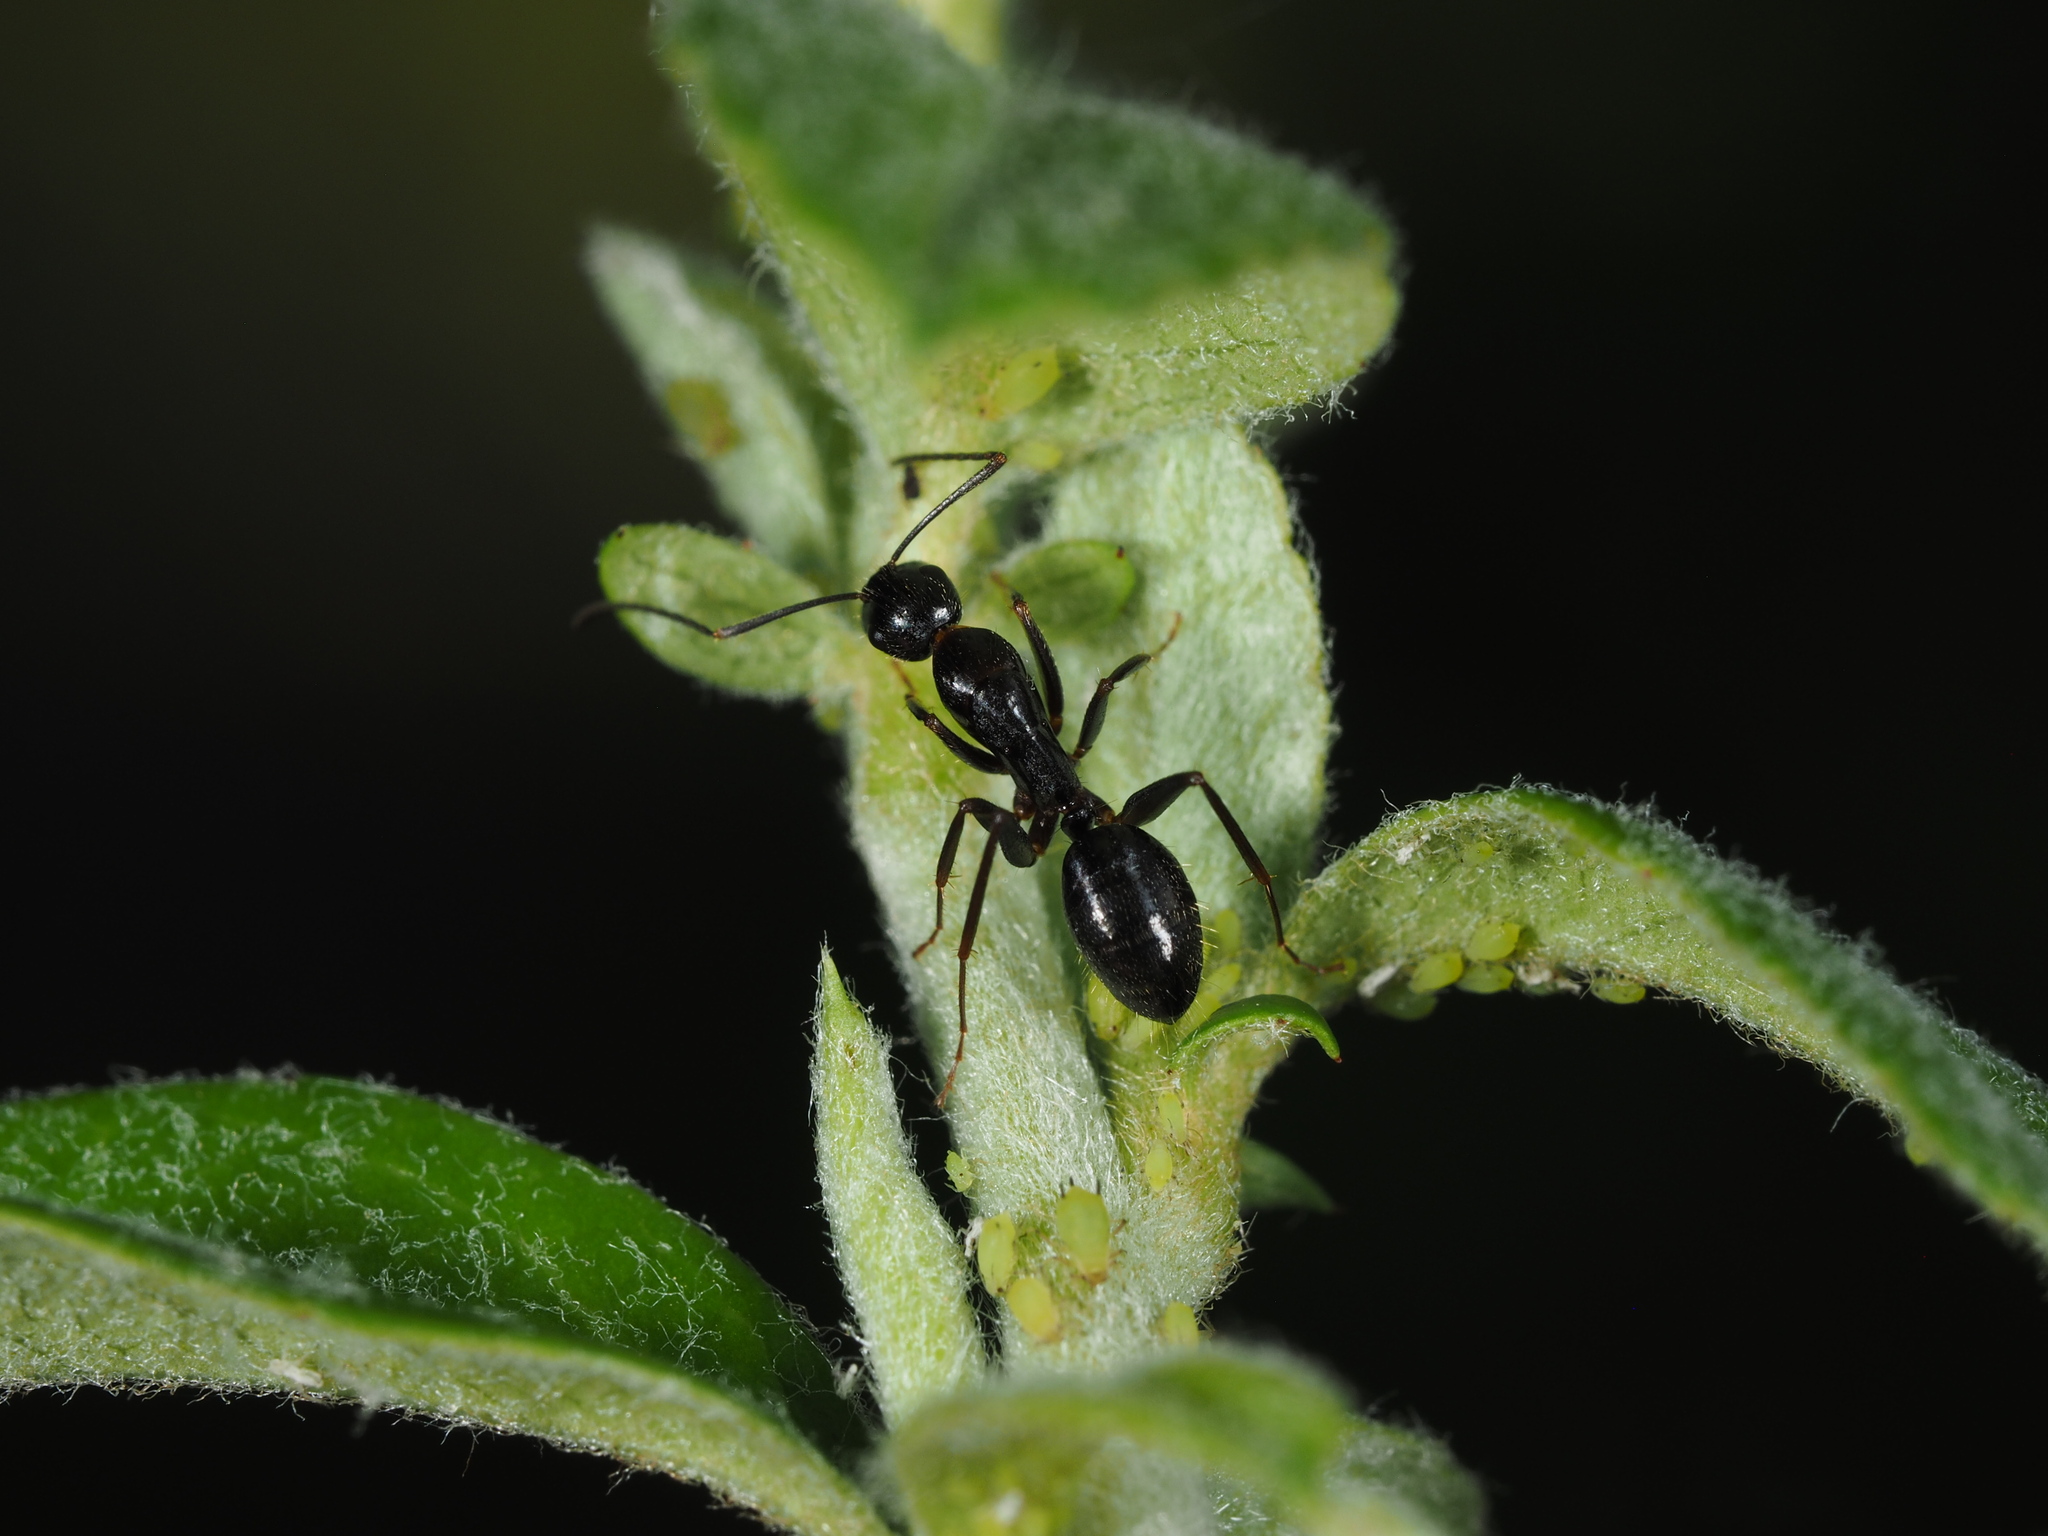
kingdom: Animalia
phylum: Arthropoda
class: Insecta
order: Hymenoptera
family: Formicidae
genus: Camponotus
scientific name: Camponotus aethiops
